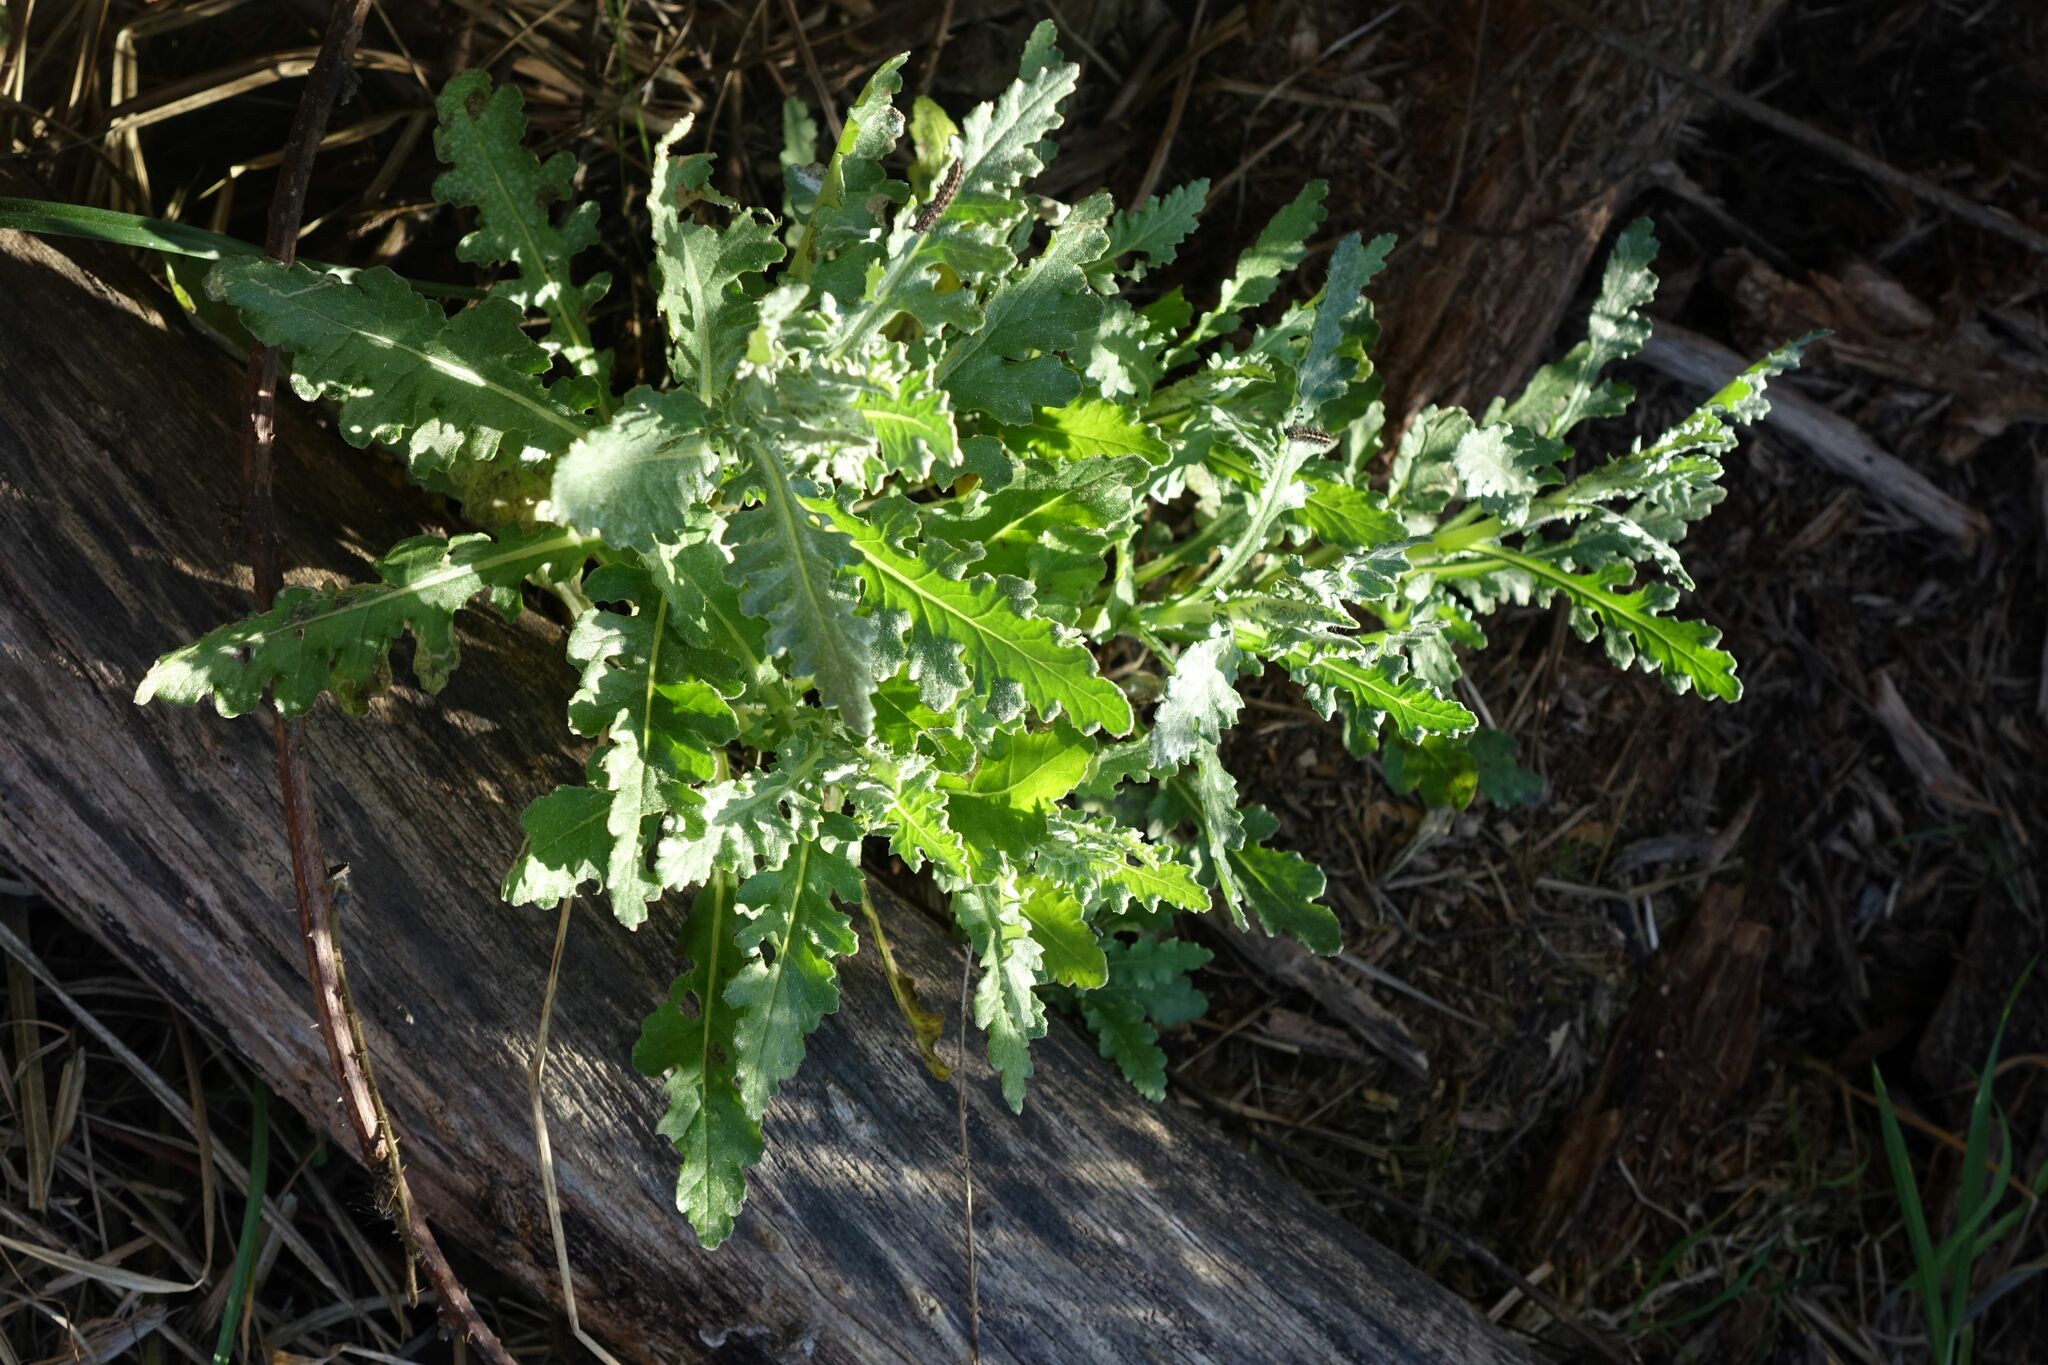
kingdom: Plantae
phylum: Tracheophyta
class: Magnoliopsida
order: Asterales
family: Asteraceae
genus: Senecio
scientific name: Senecio glomeratus
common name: Cutleaf burnweed
